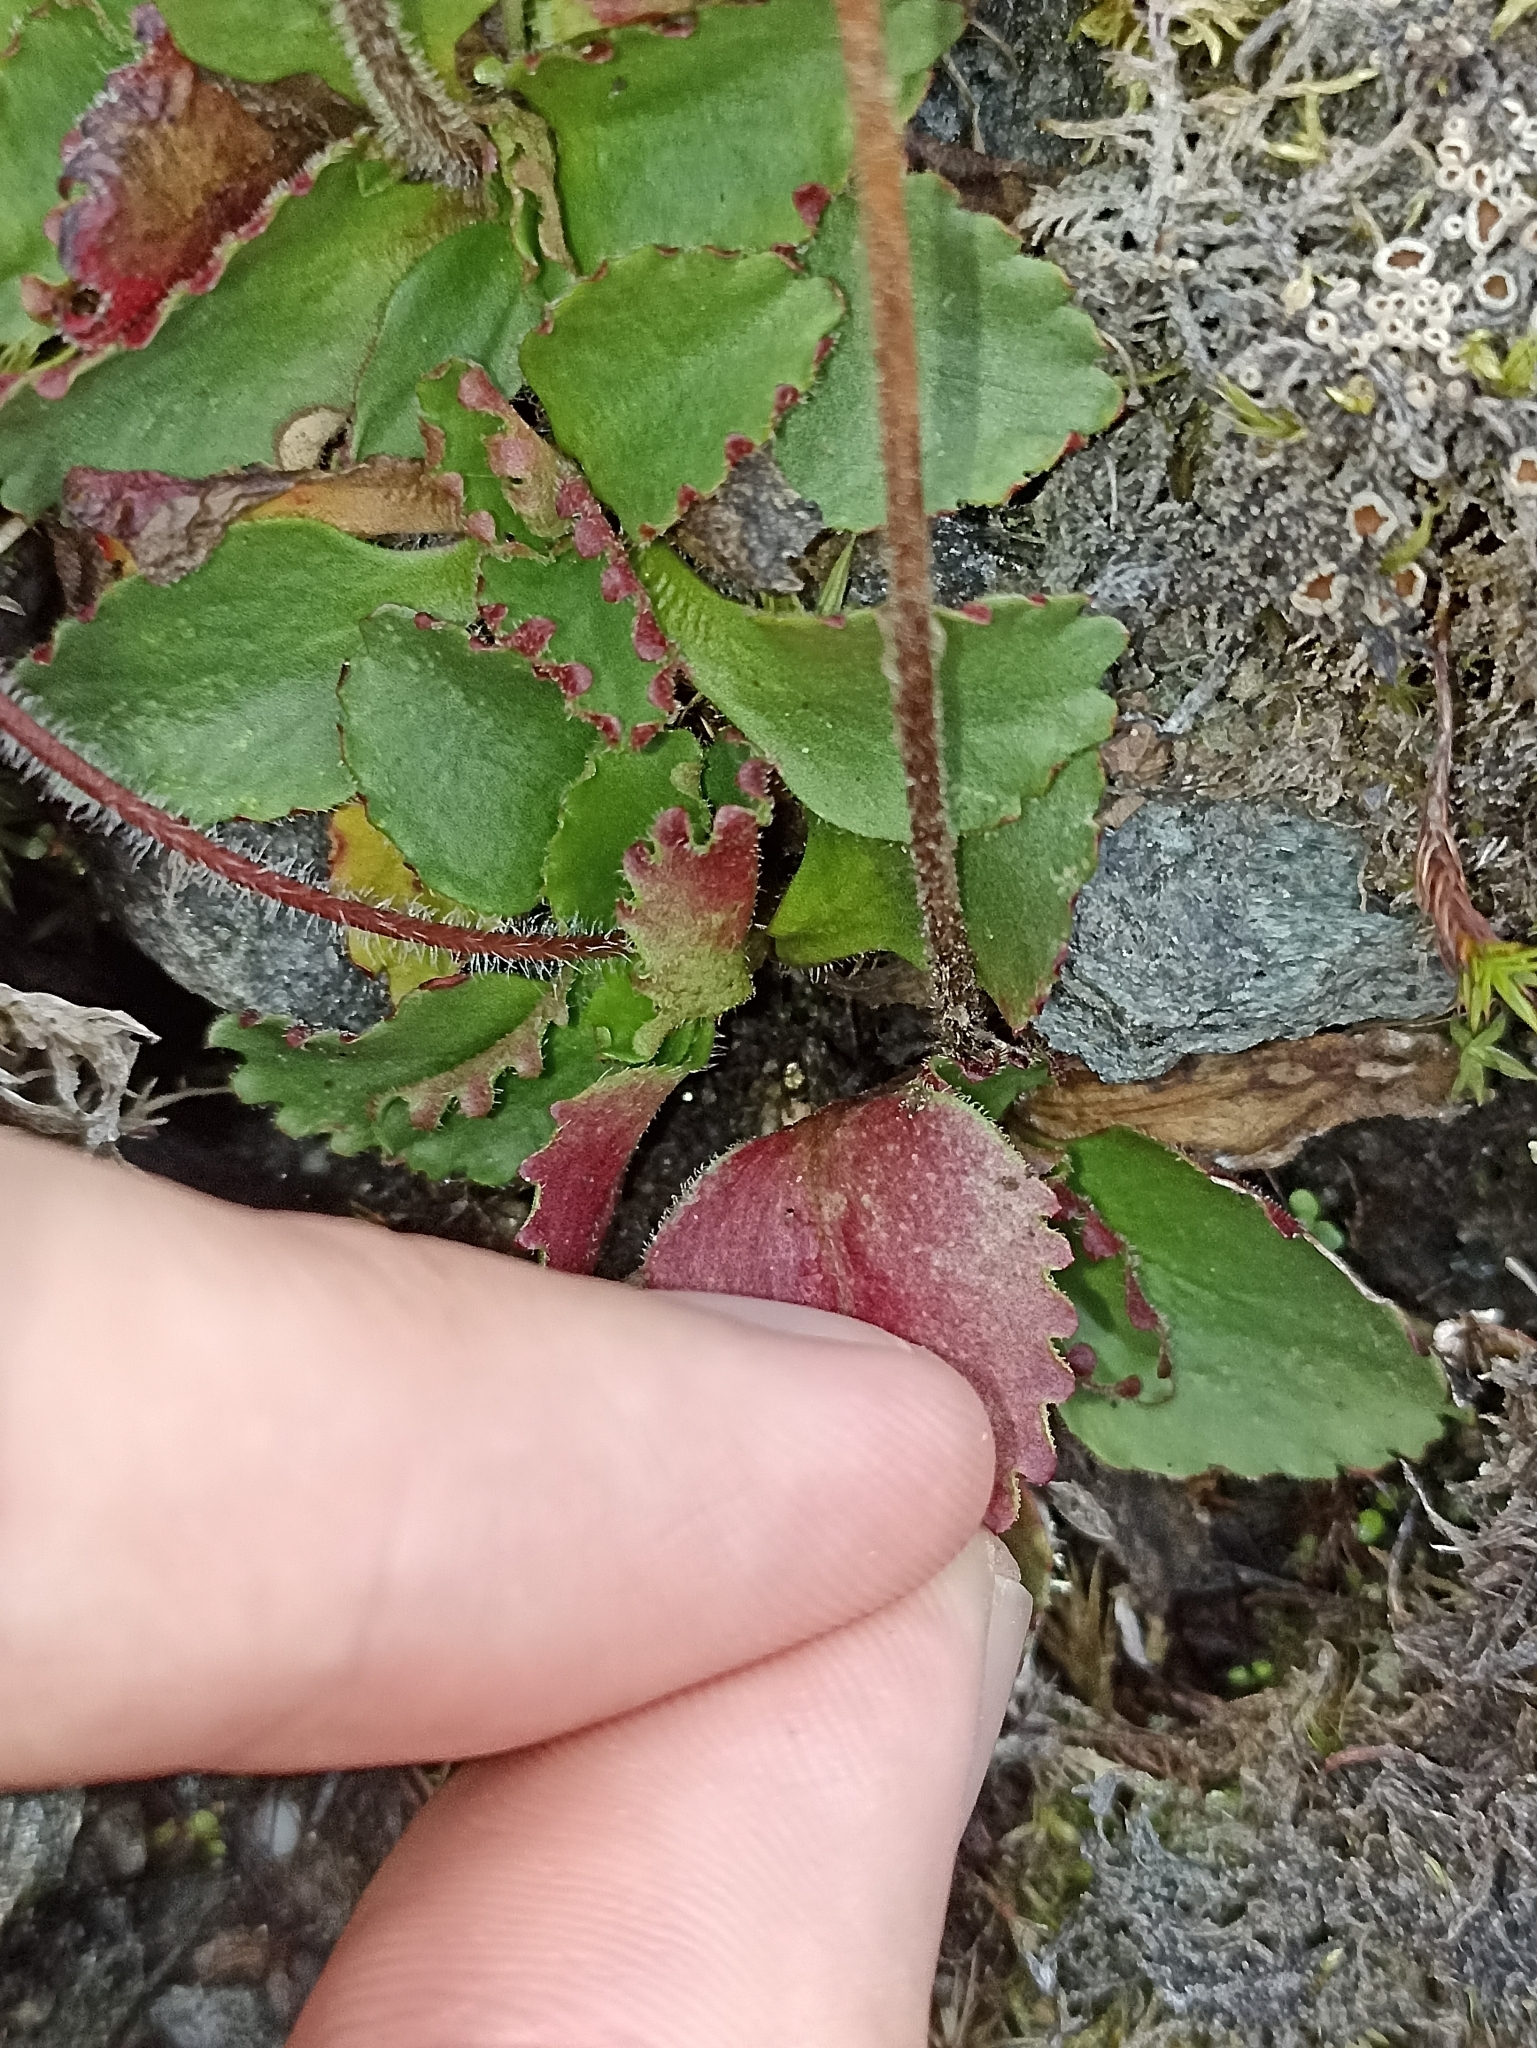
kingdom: Plantae
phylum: Tracheophyta
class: Magnoliopsida
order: Saxifragales
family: Saxifragaceae
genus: Micranthes
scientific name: Micranthes nivalis
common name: Alpine saxifrage
